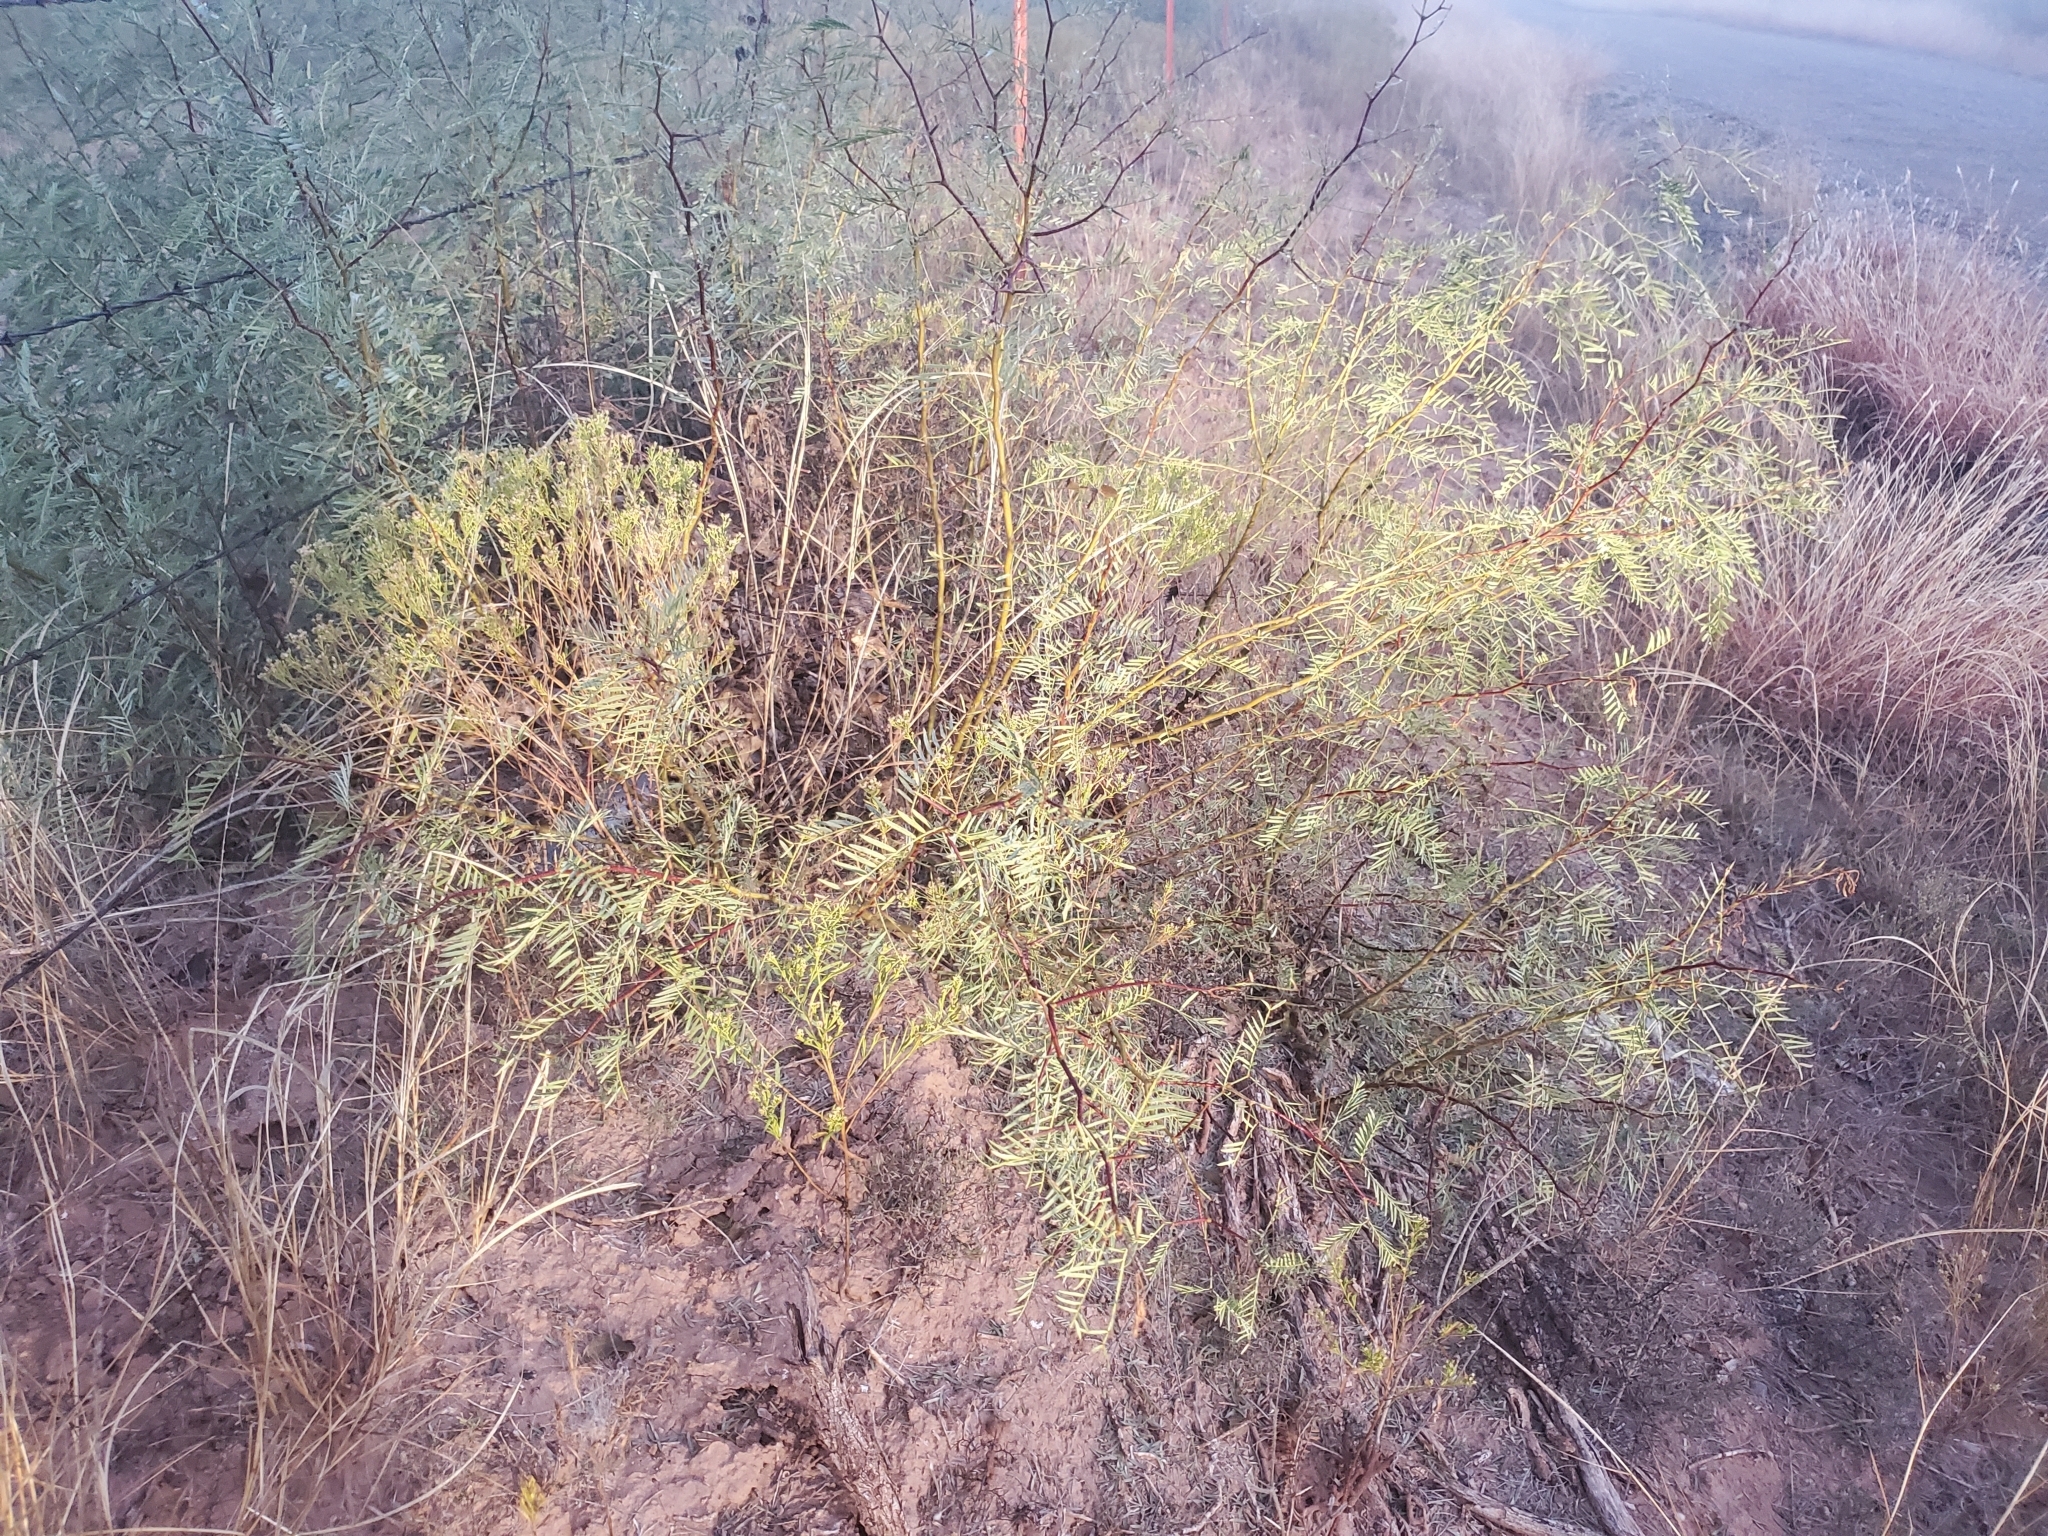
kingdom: Plantae
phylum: Tracheophyta
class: Magnoliopsida
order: Fabales
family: Fabaceae
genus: Prosopis
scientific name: Prosopis glandulosa
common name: Honey mesquite
